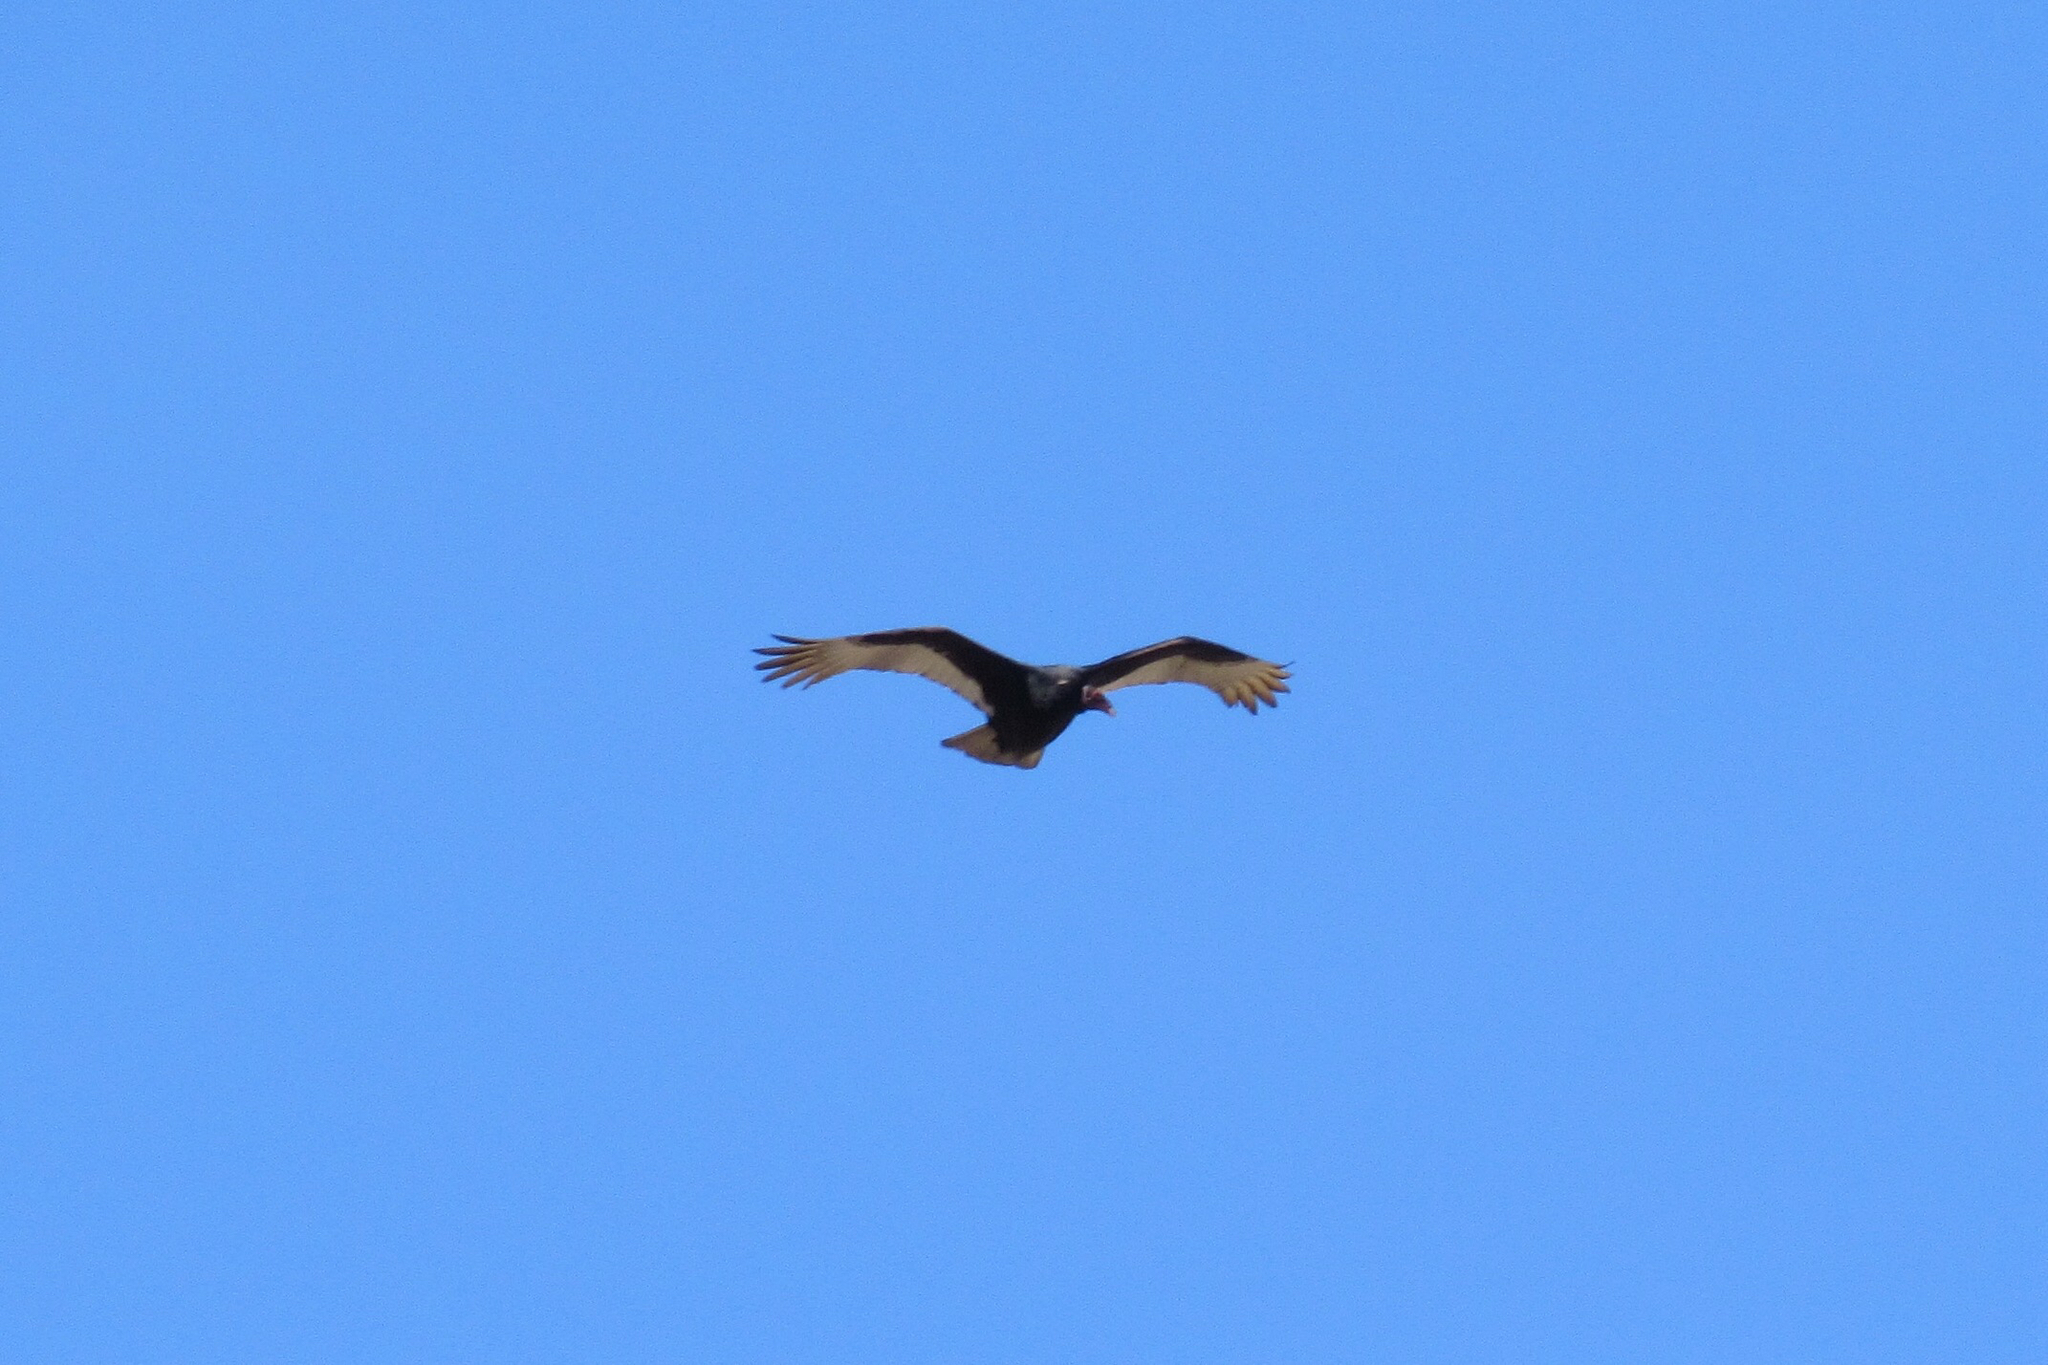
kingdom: Animalia
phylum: Chordata
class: Aves
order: Accipitriformes
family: Cathartidae
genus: Cathartes
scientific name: Cathartes aura
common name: Turkey vulture
